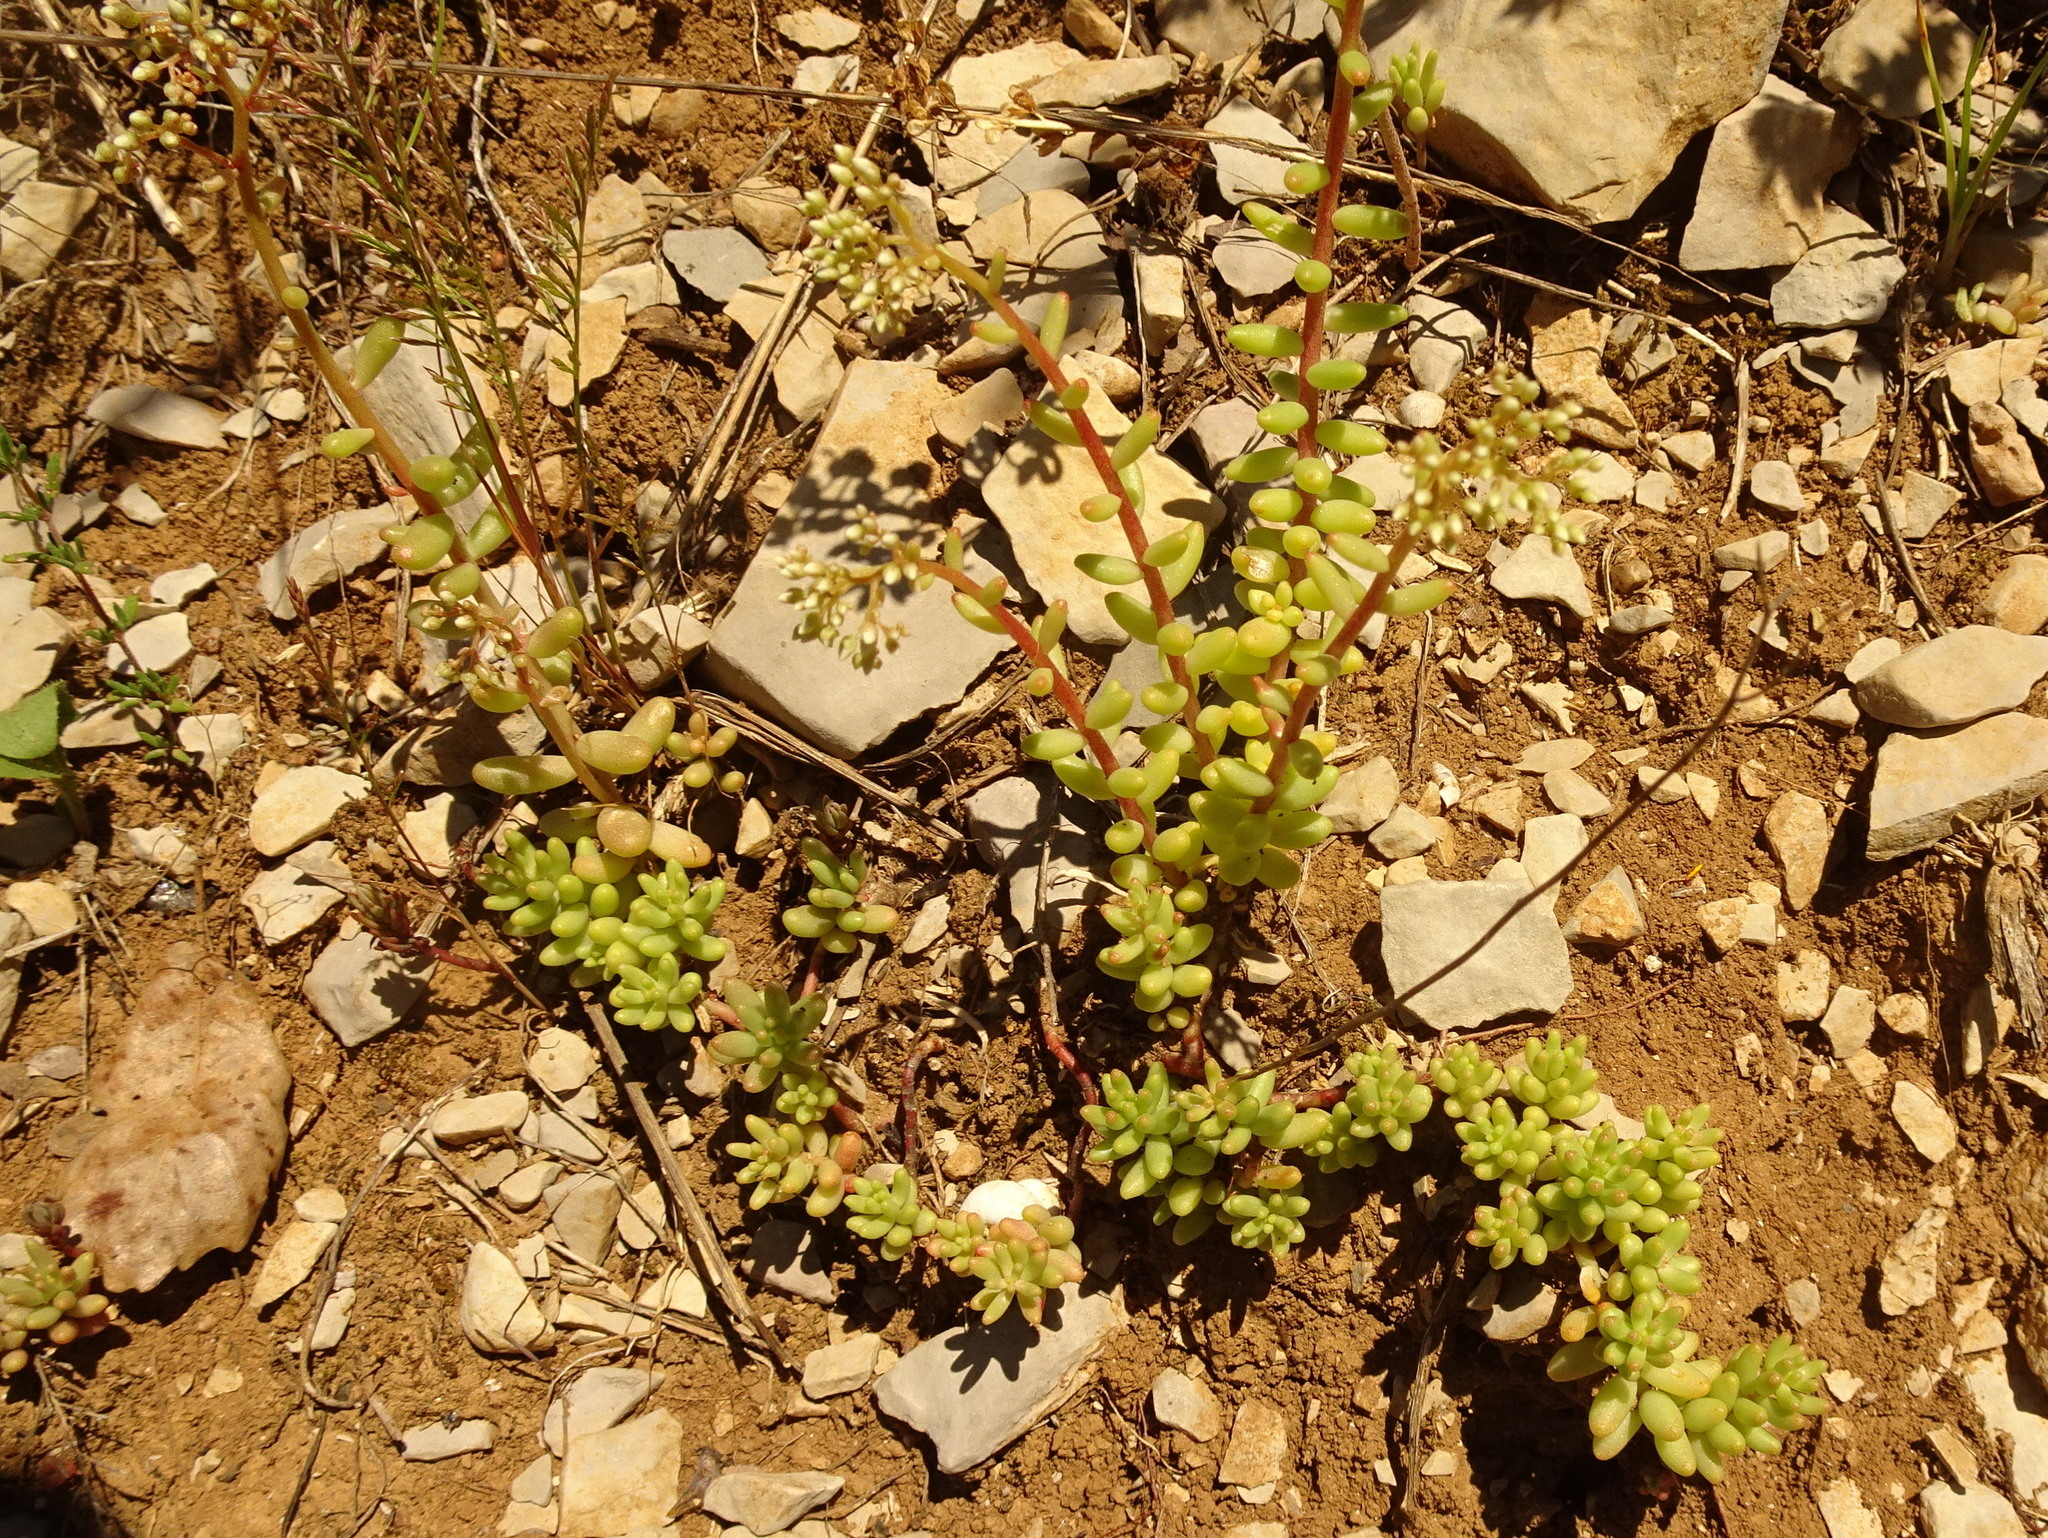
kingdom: Plantae
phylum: Tracheophyta
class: Magnoliopsida
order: Saxifragales
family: Crassulaceae
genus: Sedum
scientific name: Sedum album
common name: White stonecrop
